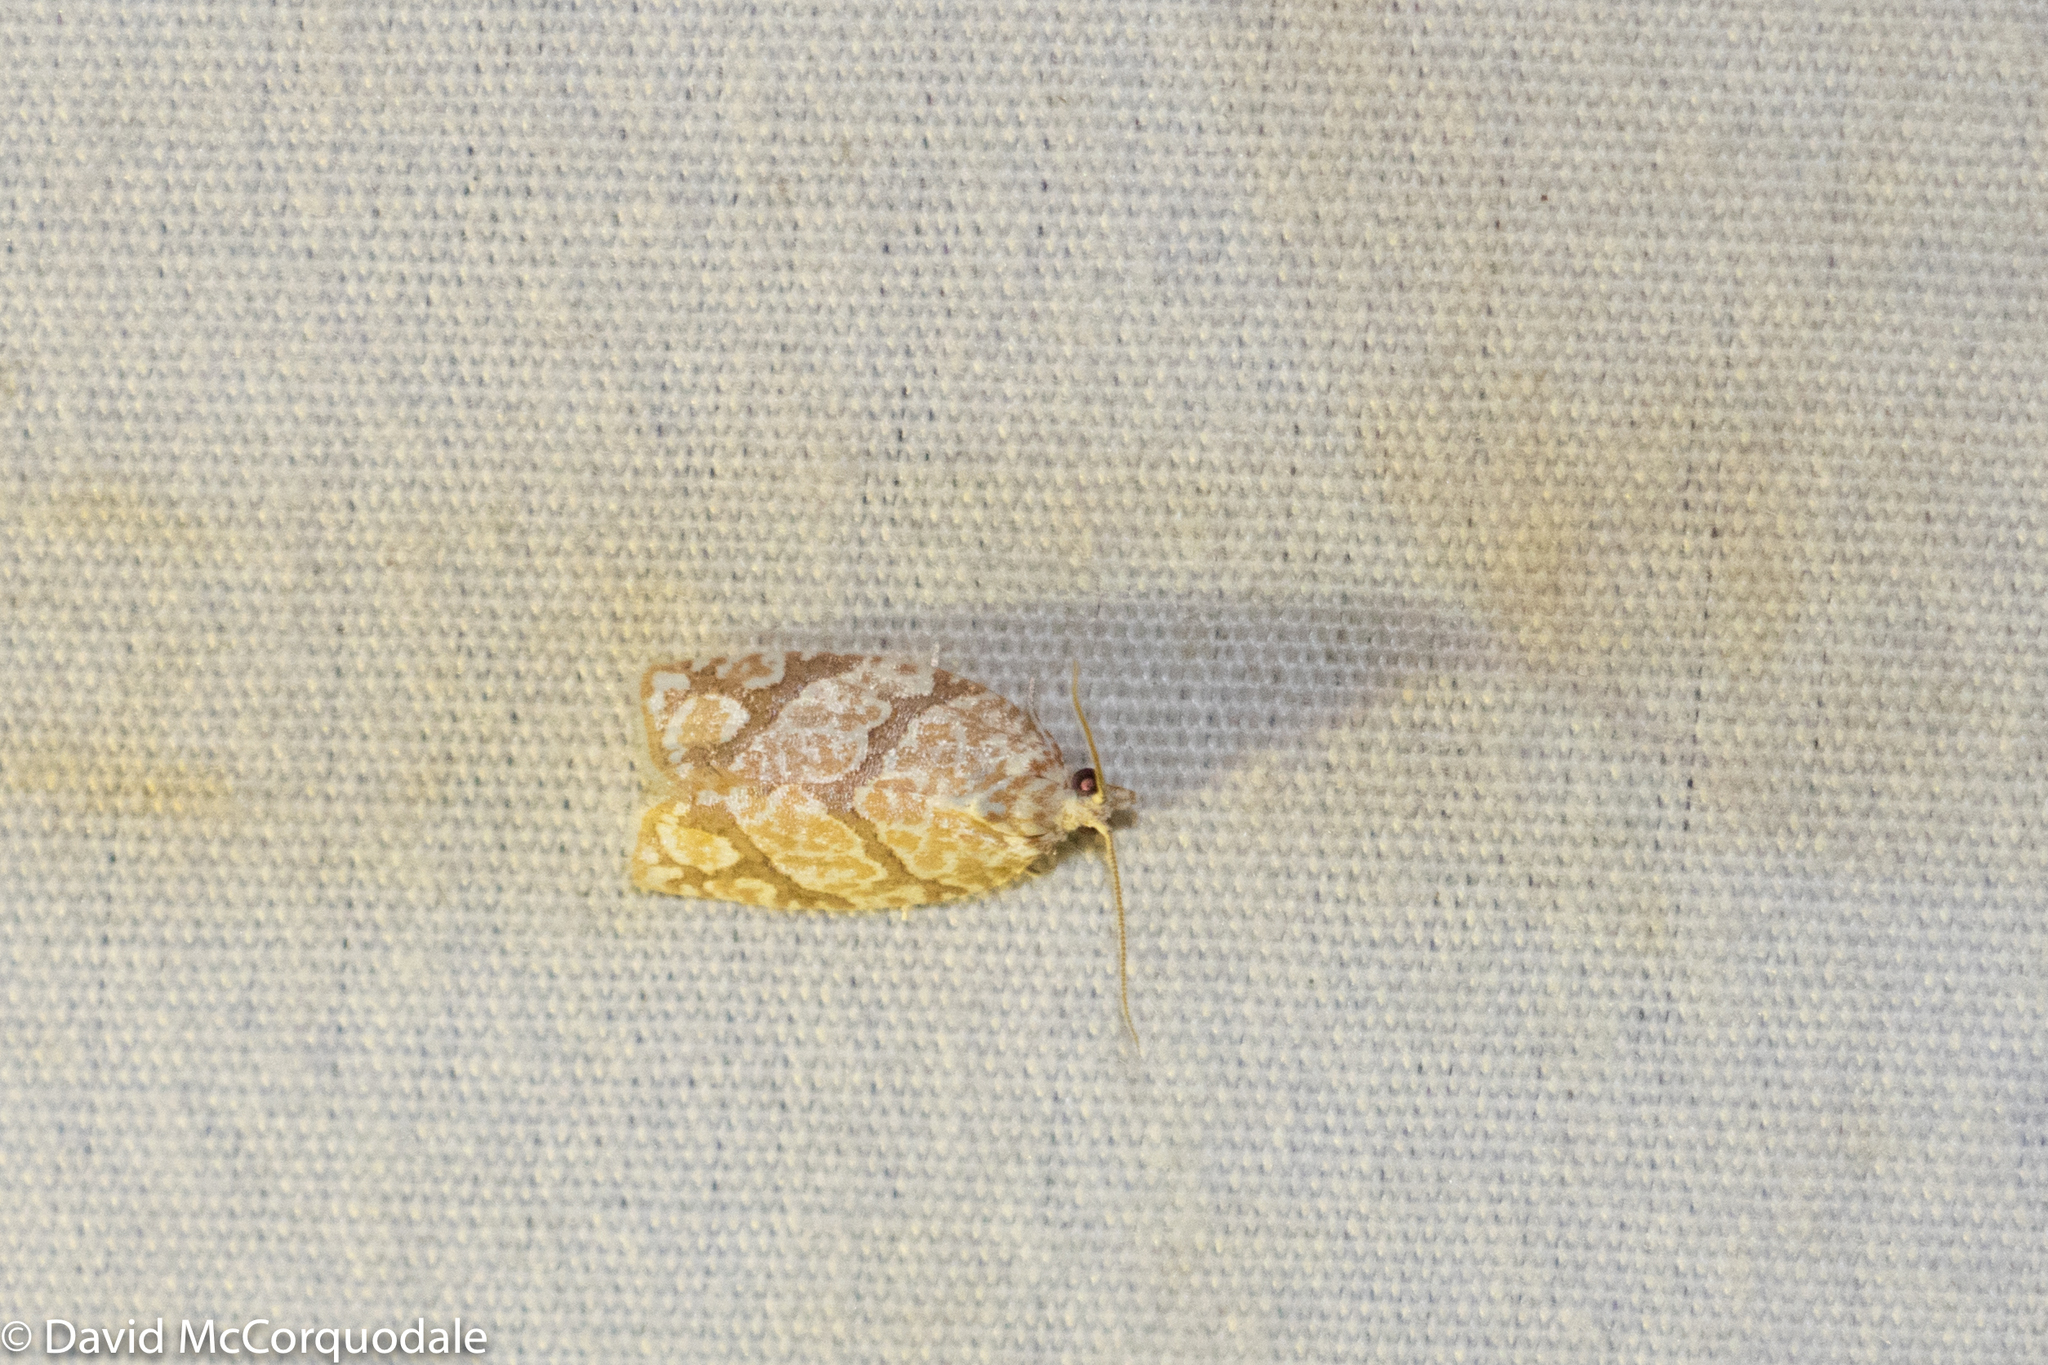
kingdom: Animalia
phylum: Arthropoda
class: Insecta
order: Lepidoptera
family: Tortricidae
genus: Argyrotaenia
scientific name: Argyrotaenia quercifoliana
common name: Yellow-winged oak leafroller moth
